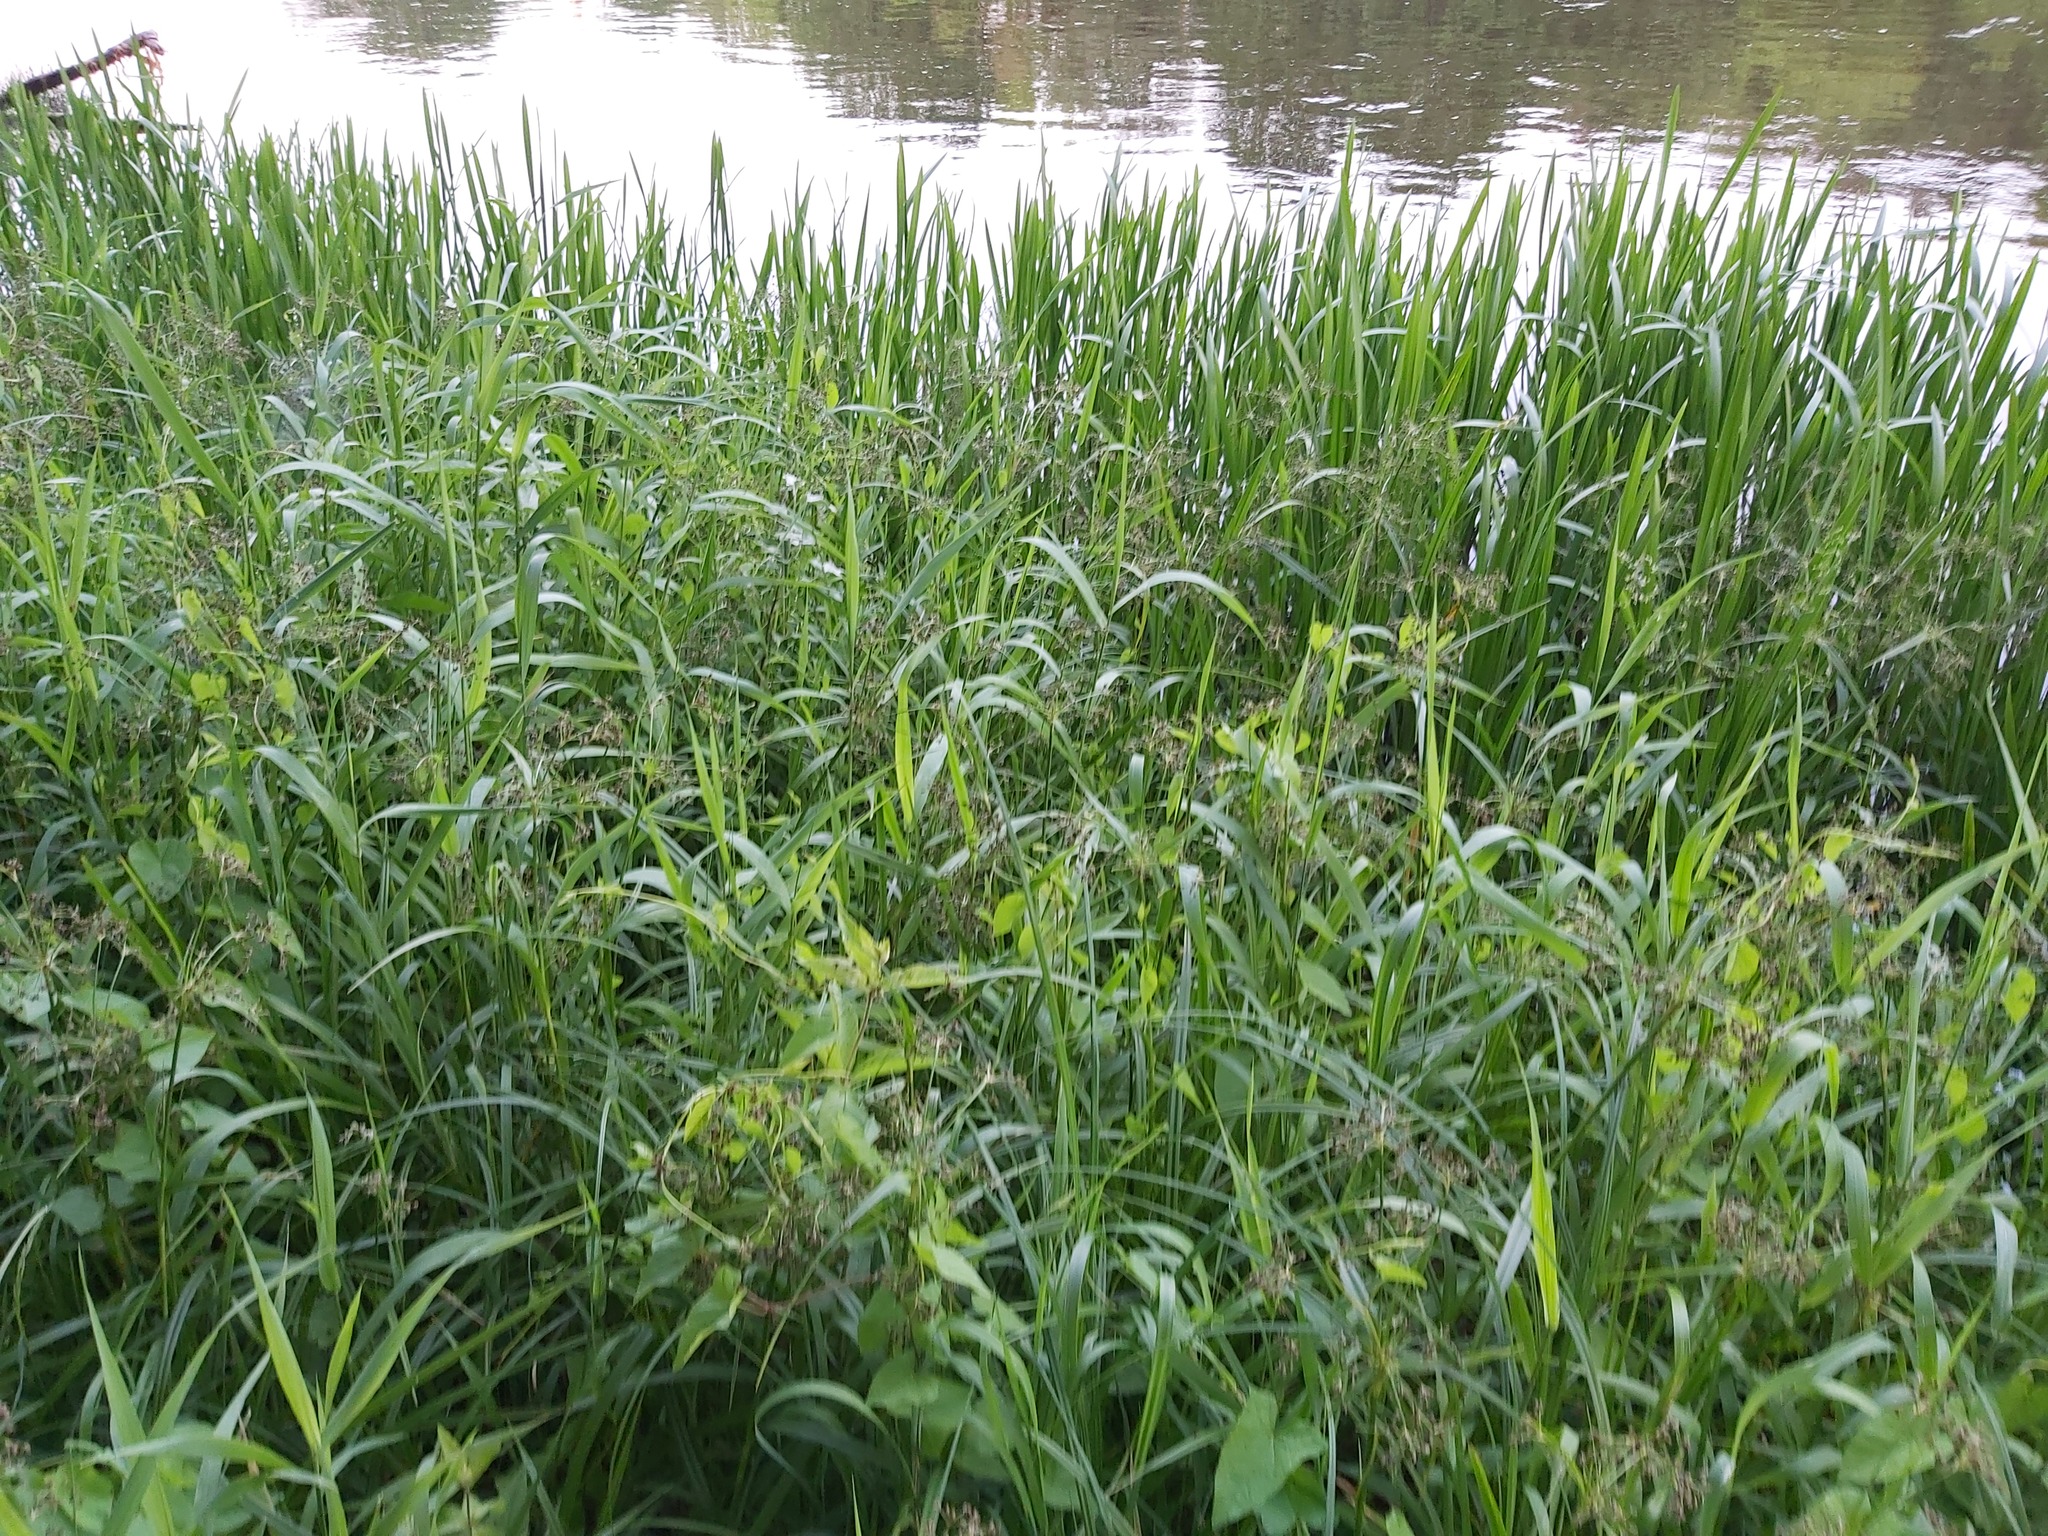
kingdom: Plantae
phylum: Tracheophyta
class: Liliopsida
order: Poales
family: Cyperaceae
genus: Scirpus
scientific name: Scirpus sylvaticus
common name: Wood club-rush
